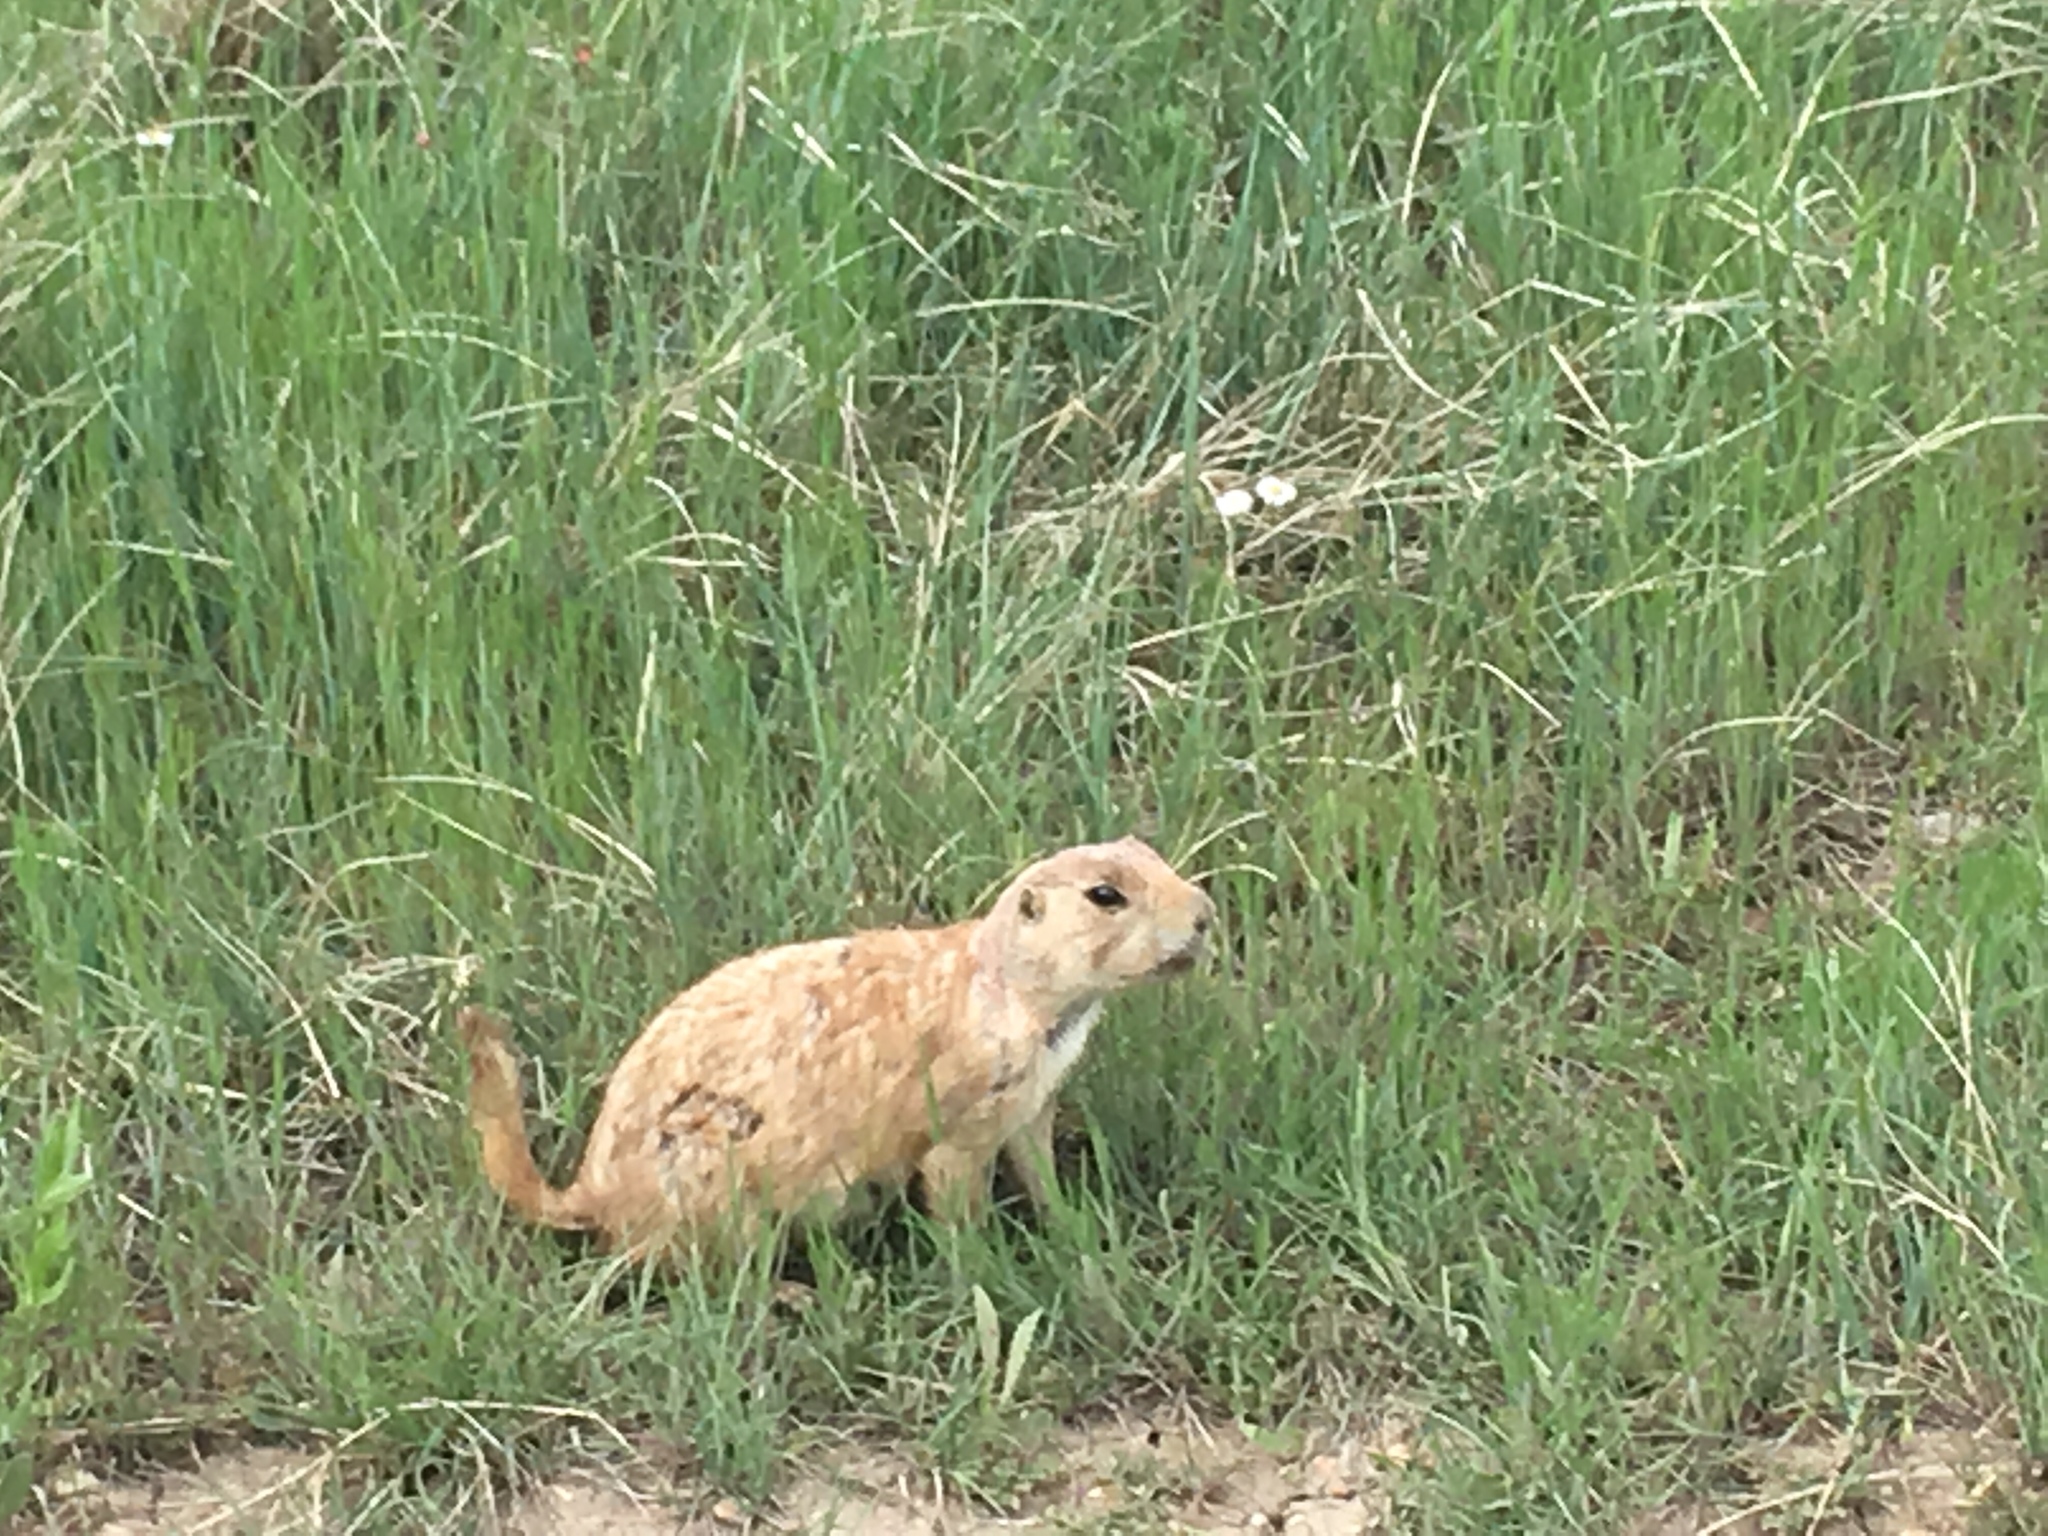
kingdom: Animalia
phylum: Chordata
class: Mammalia
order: Rodentia
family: Sciuridae
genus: Cynomys
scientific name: Cynomys ludovicianus
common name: Black-tailed prairie dog
